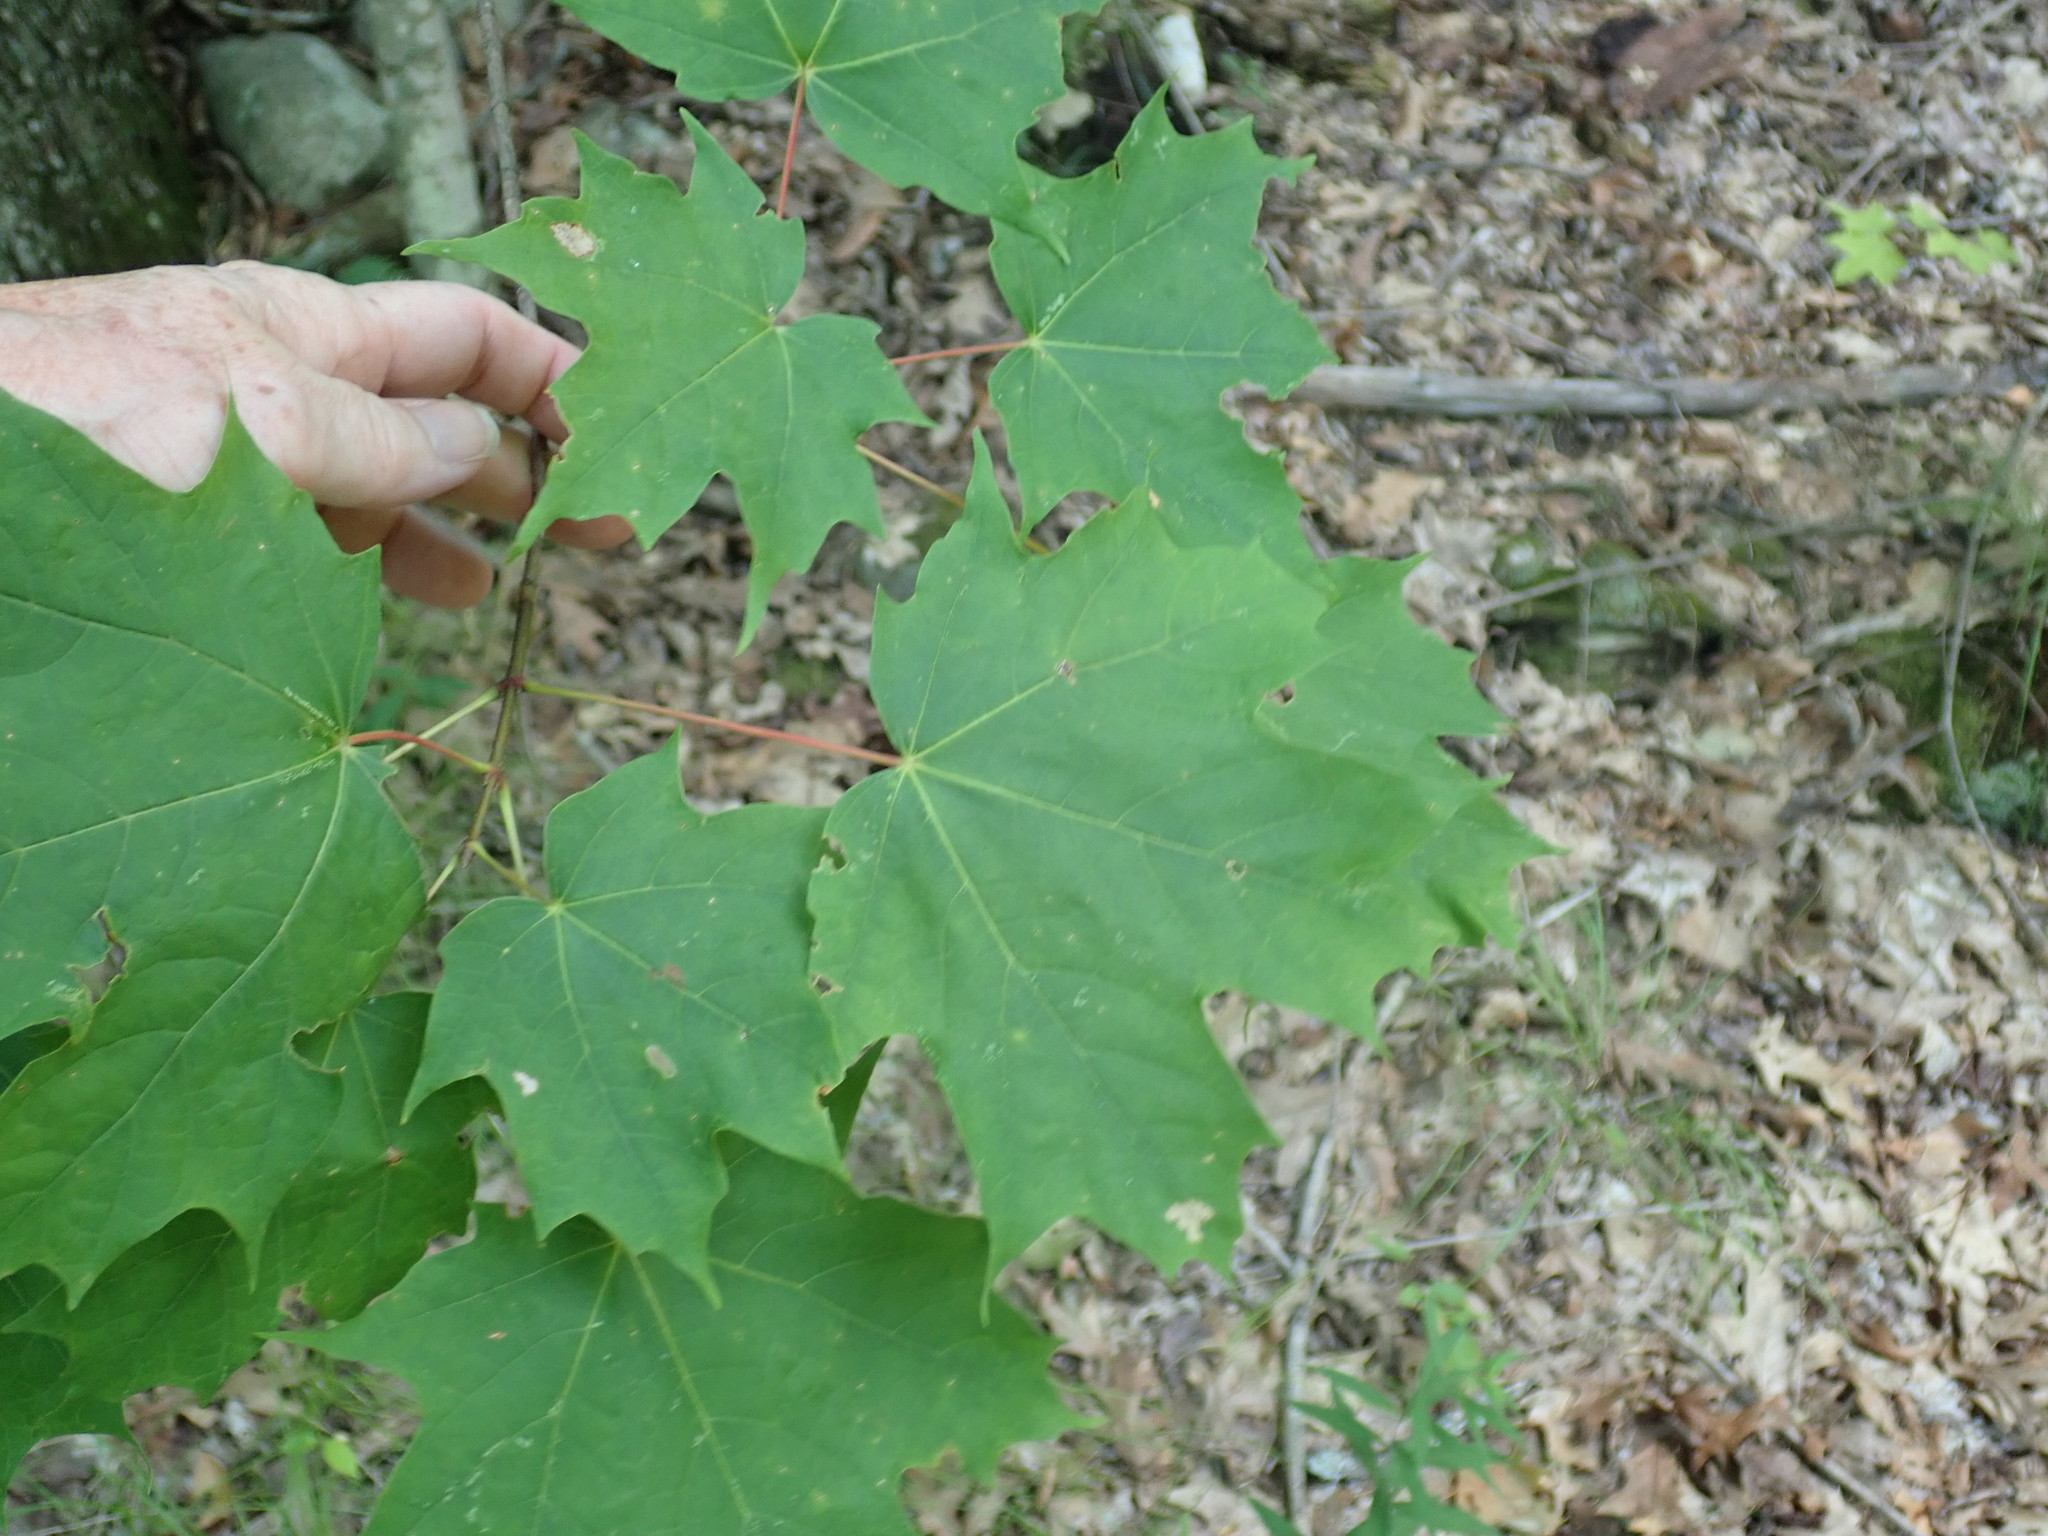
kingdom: Plantae
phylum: Tracheophyta
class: Magnoliopsida
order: Sapindales
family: Sapindaceae
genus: Acer
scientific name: Acer saccharum
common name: Sugar maple
